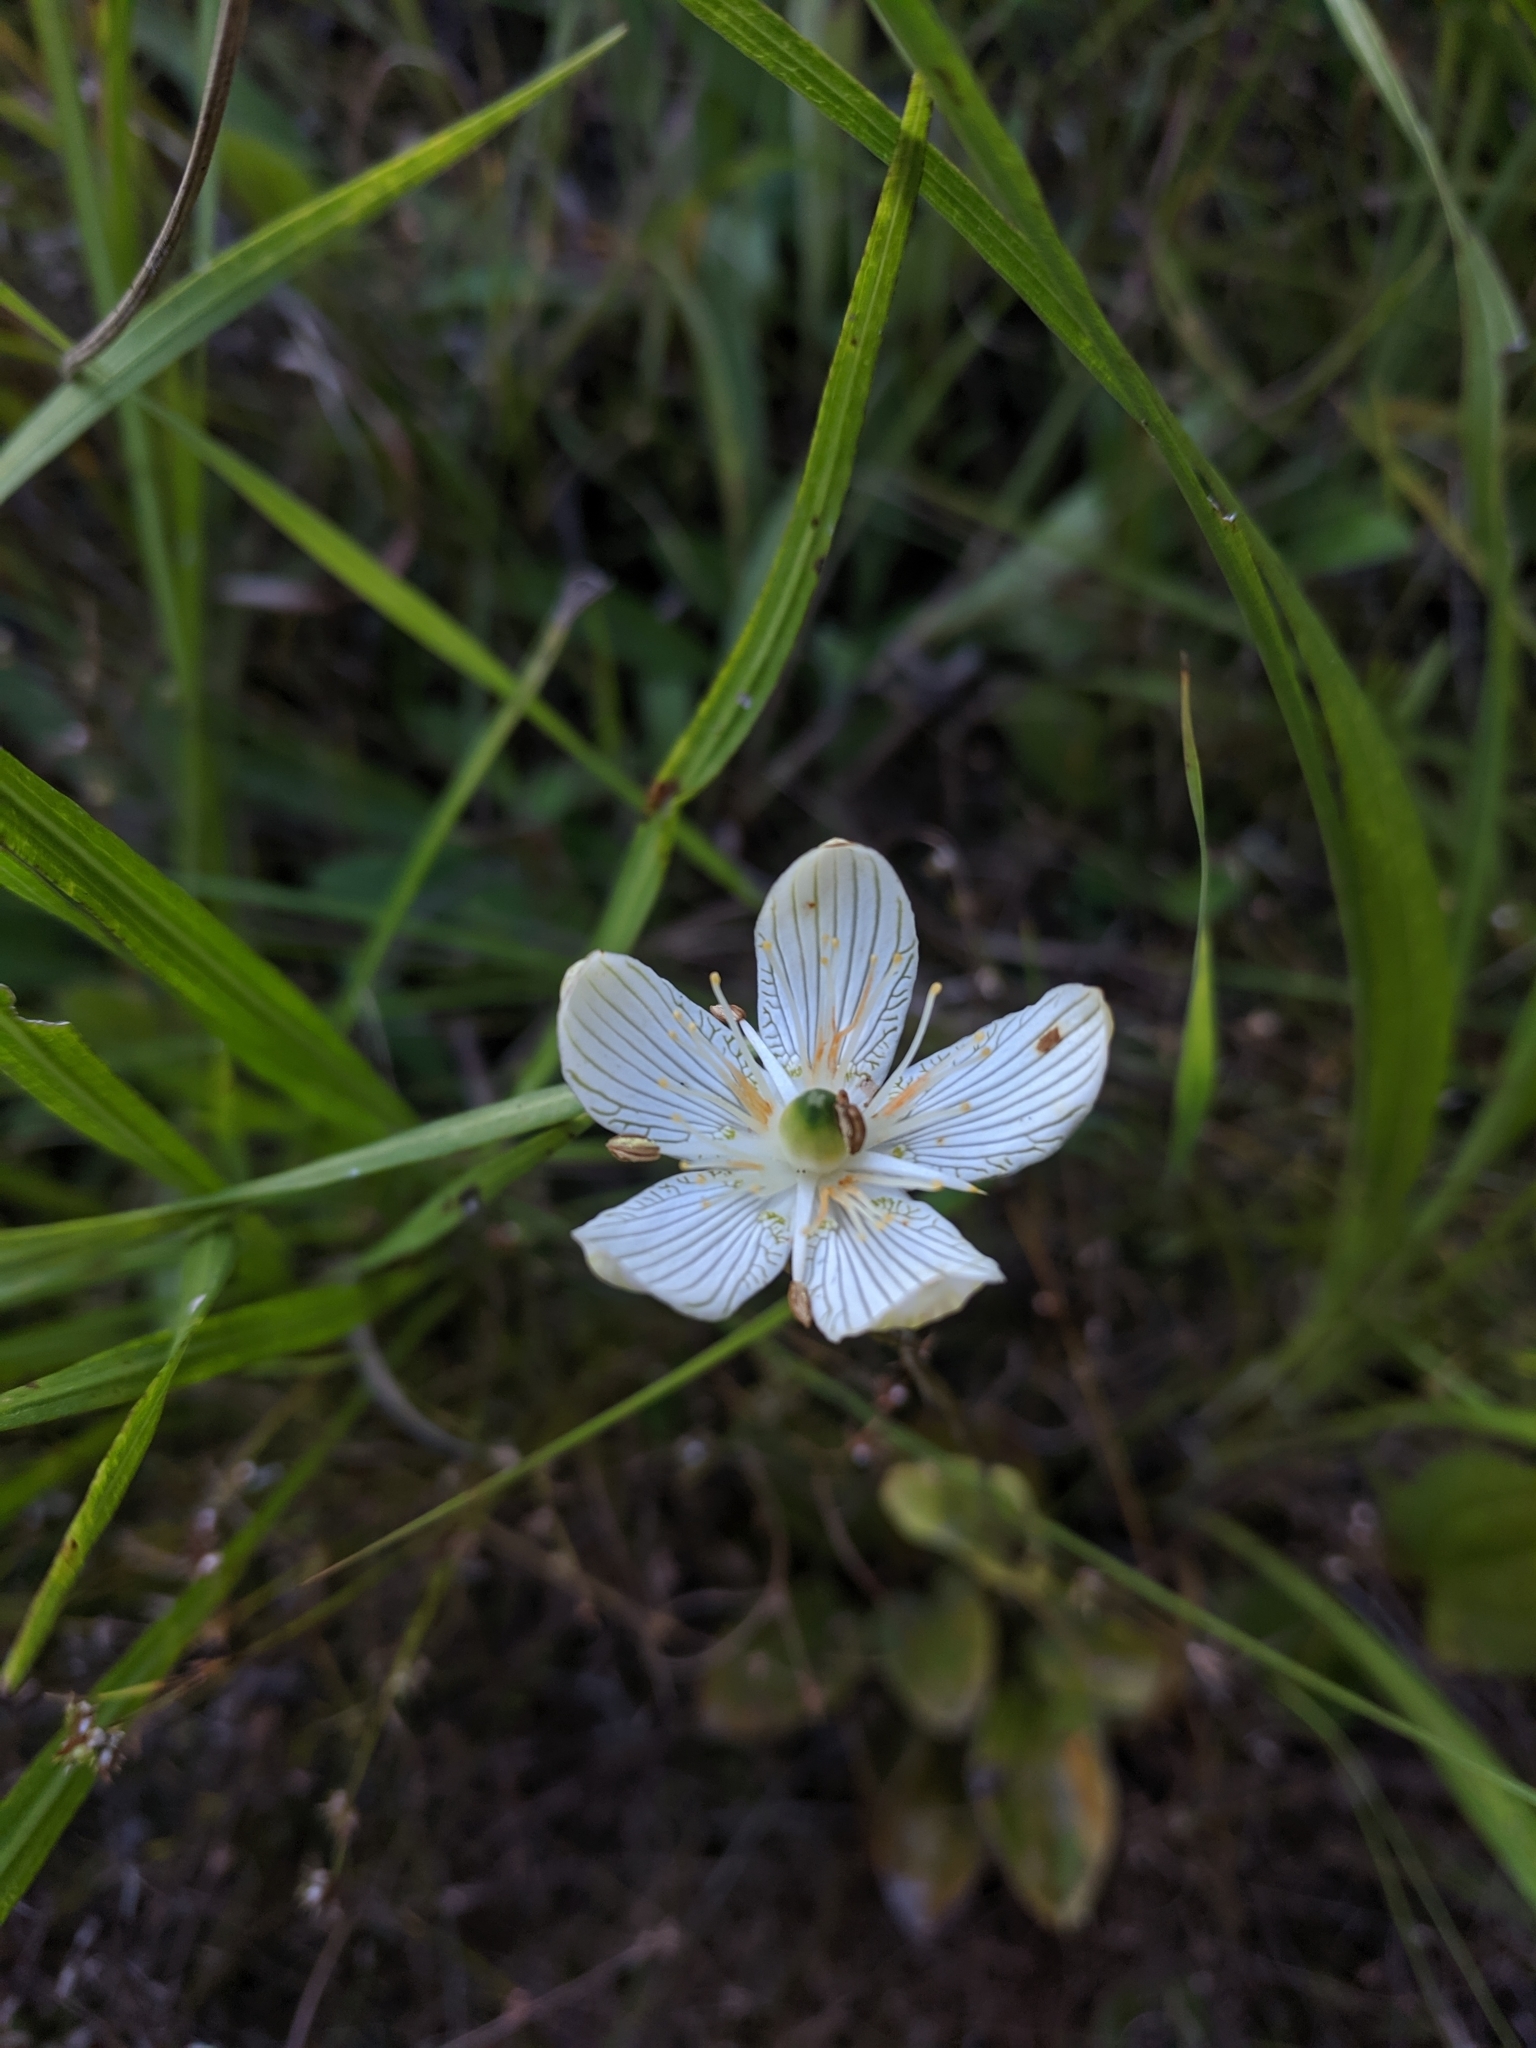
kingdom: Plantae
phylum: Tracheophyta
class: Magnoliopsida
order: Celastrales
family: Parnassiaceae
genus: Parnassia
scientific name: Parnassia grandifolia
